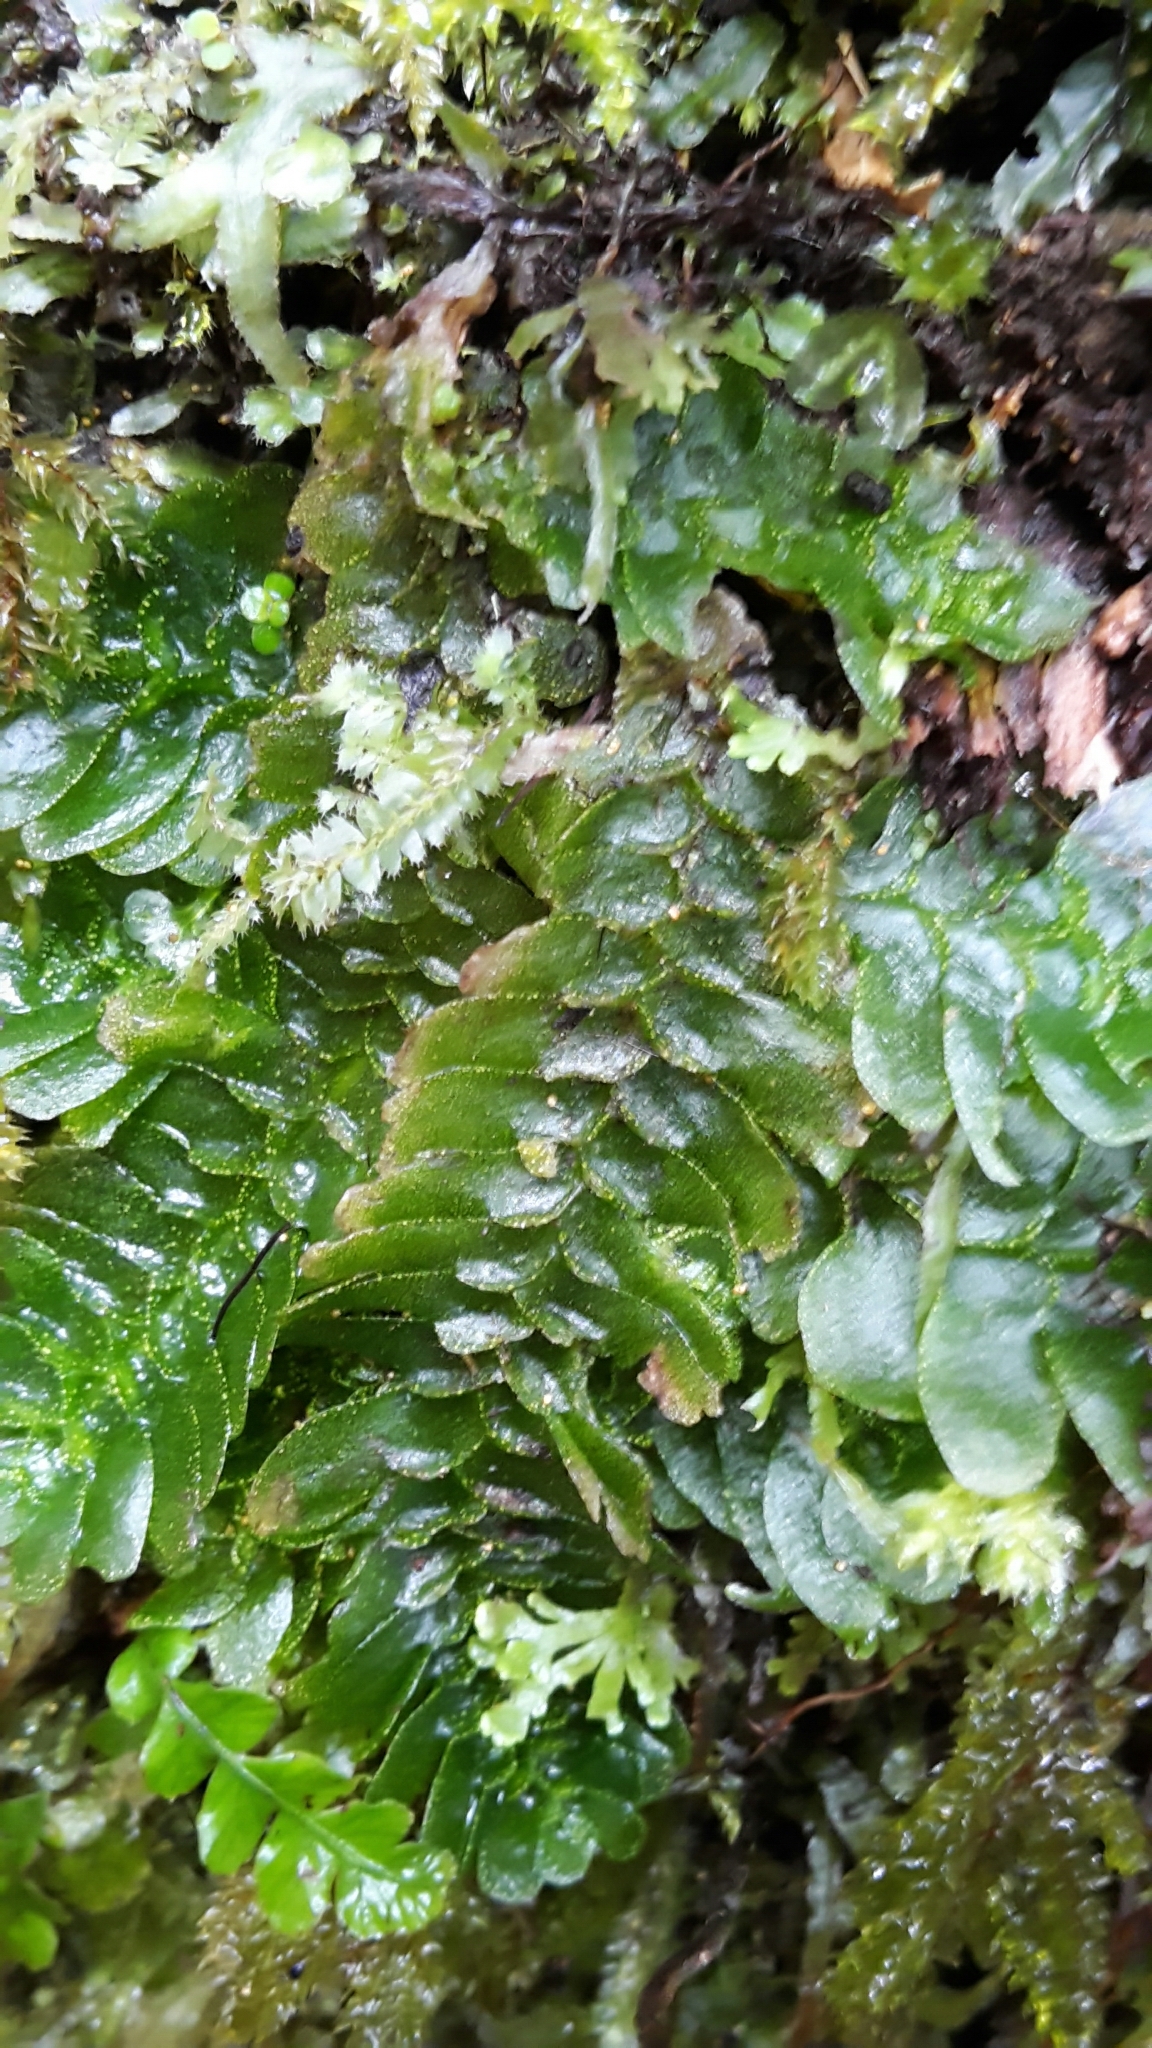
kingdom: Plantae
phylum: Marchantiophyta
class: Haplomitriopsida
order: Treubiales
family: Treubiaceae
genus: Treubia
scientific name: Treubia lacunosa
